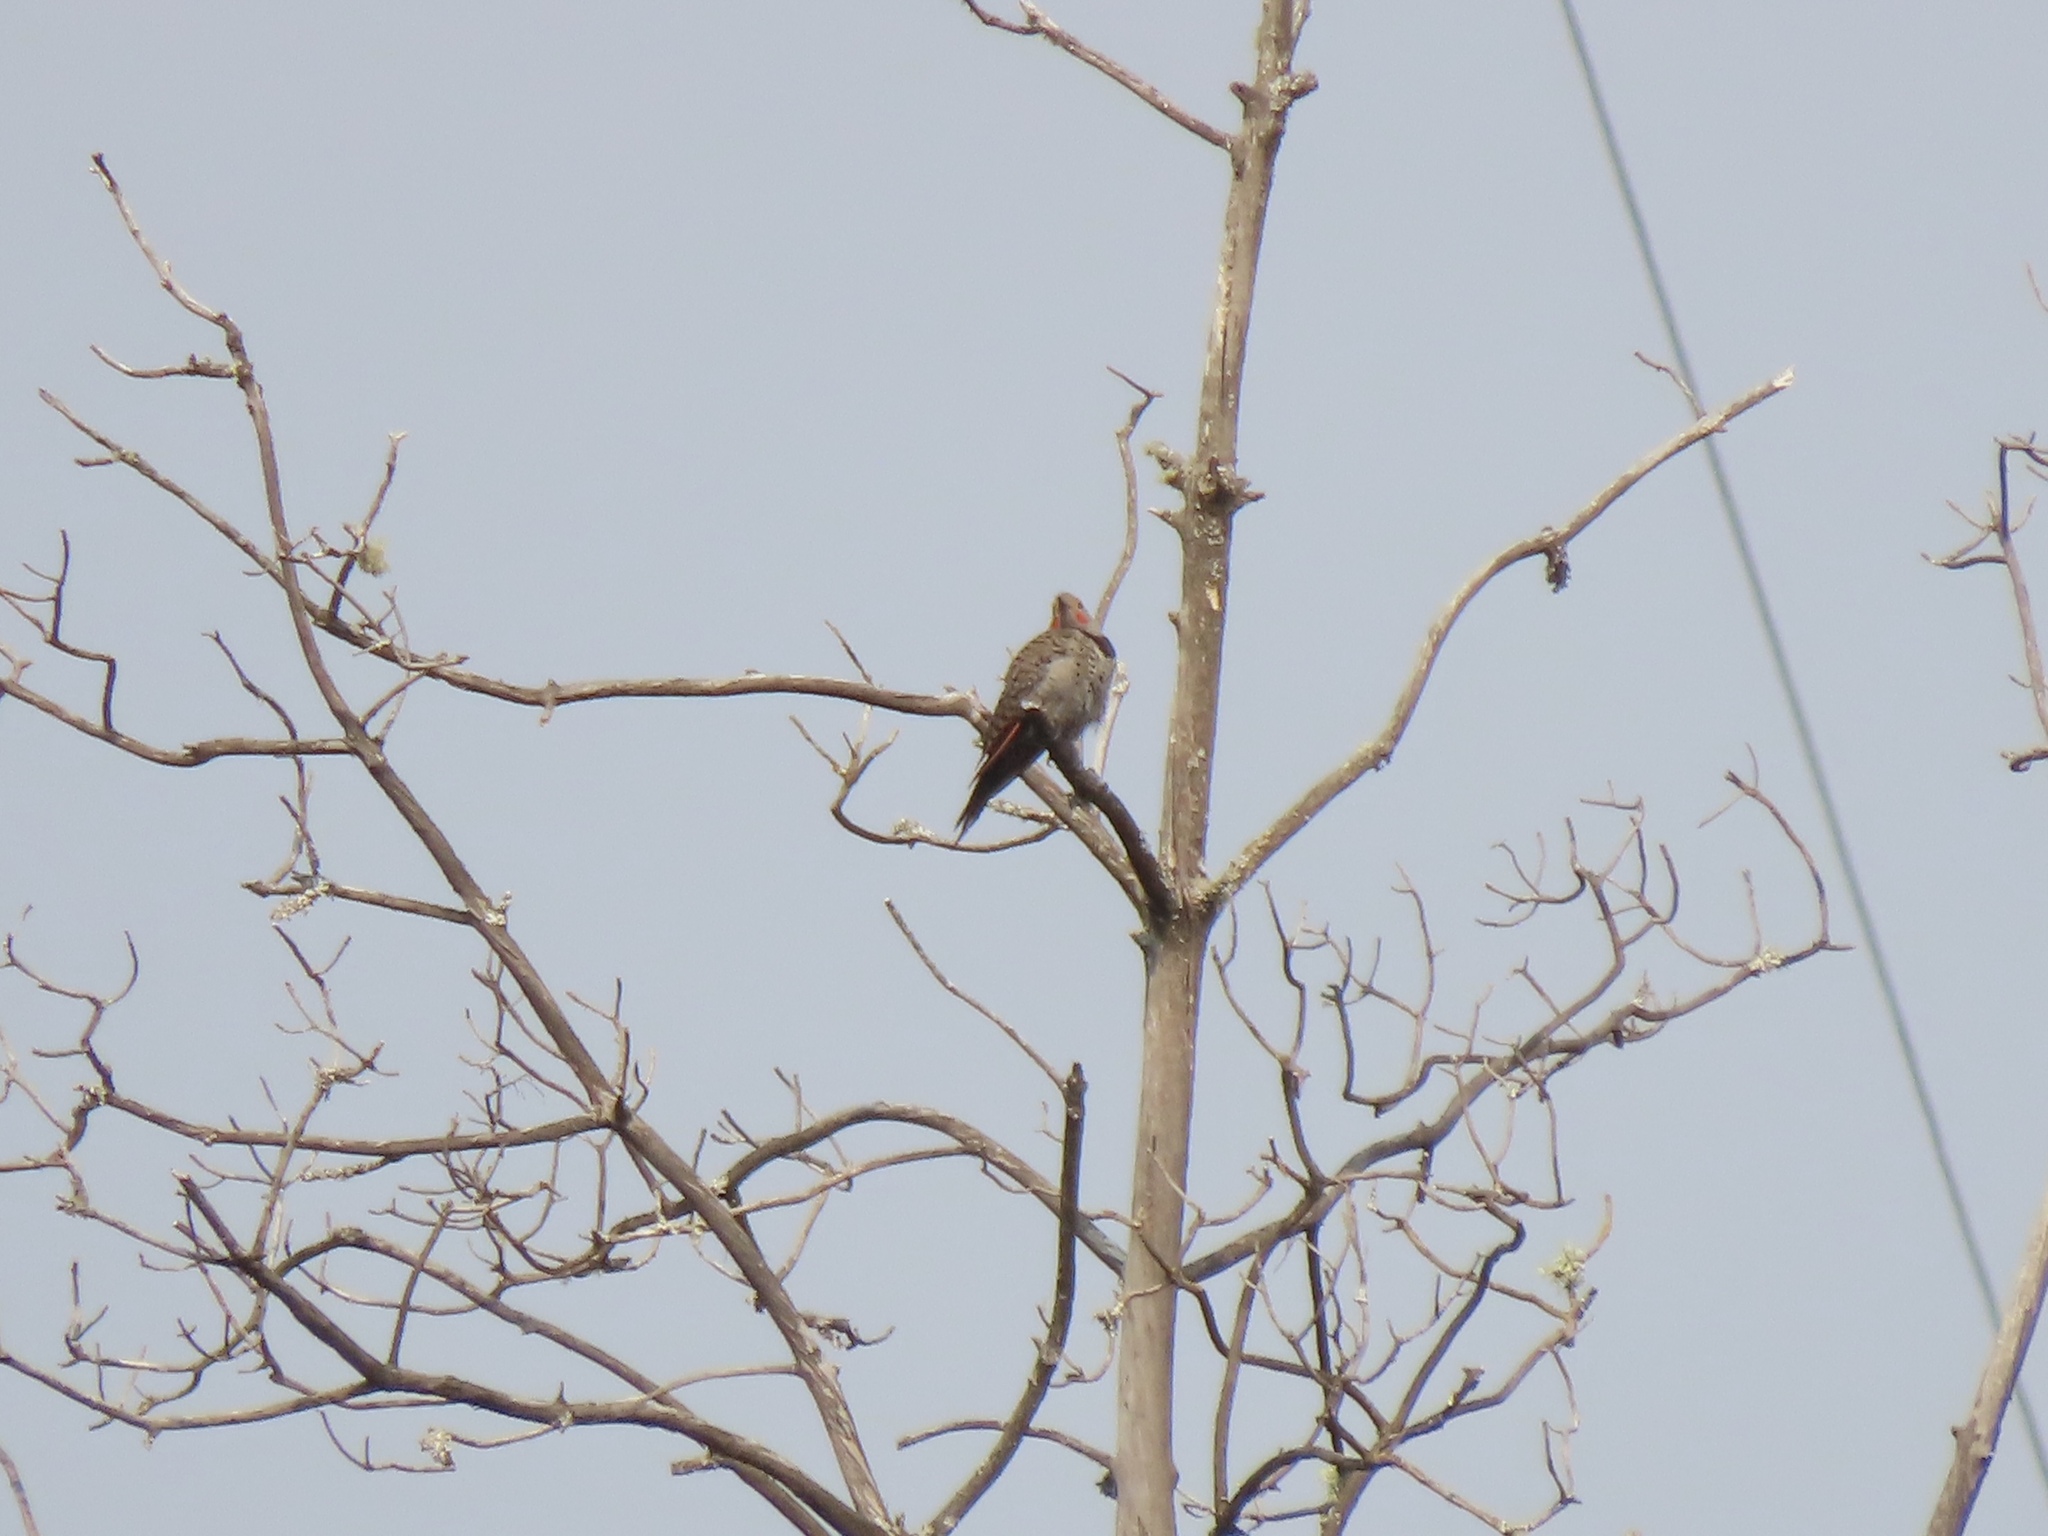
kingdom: Animalia
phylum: Chordata
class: Aves
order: Piciformes
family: Picidae
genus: Colaptes
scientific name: Colaptes auratus
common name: Northern flicker
